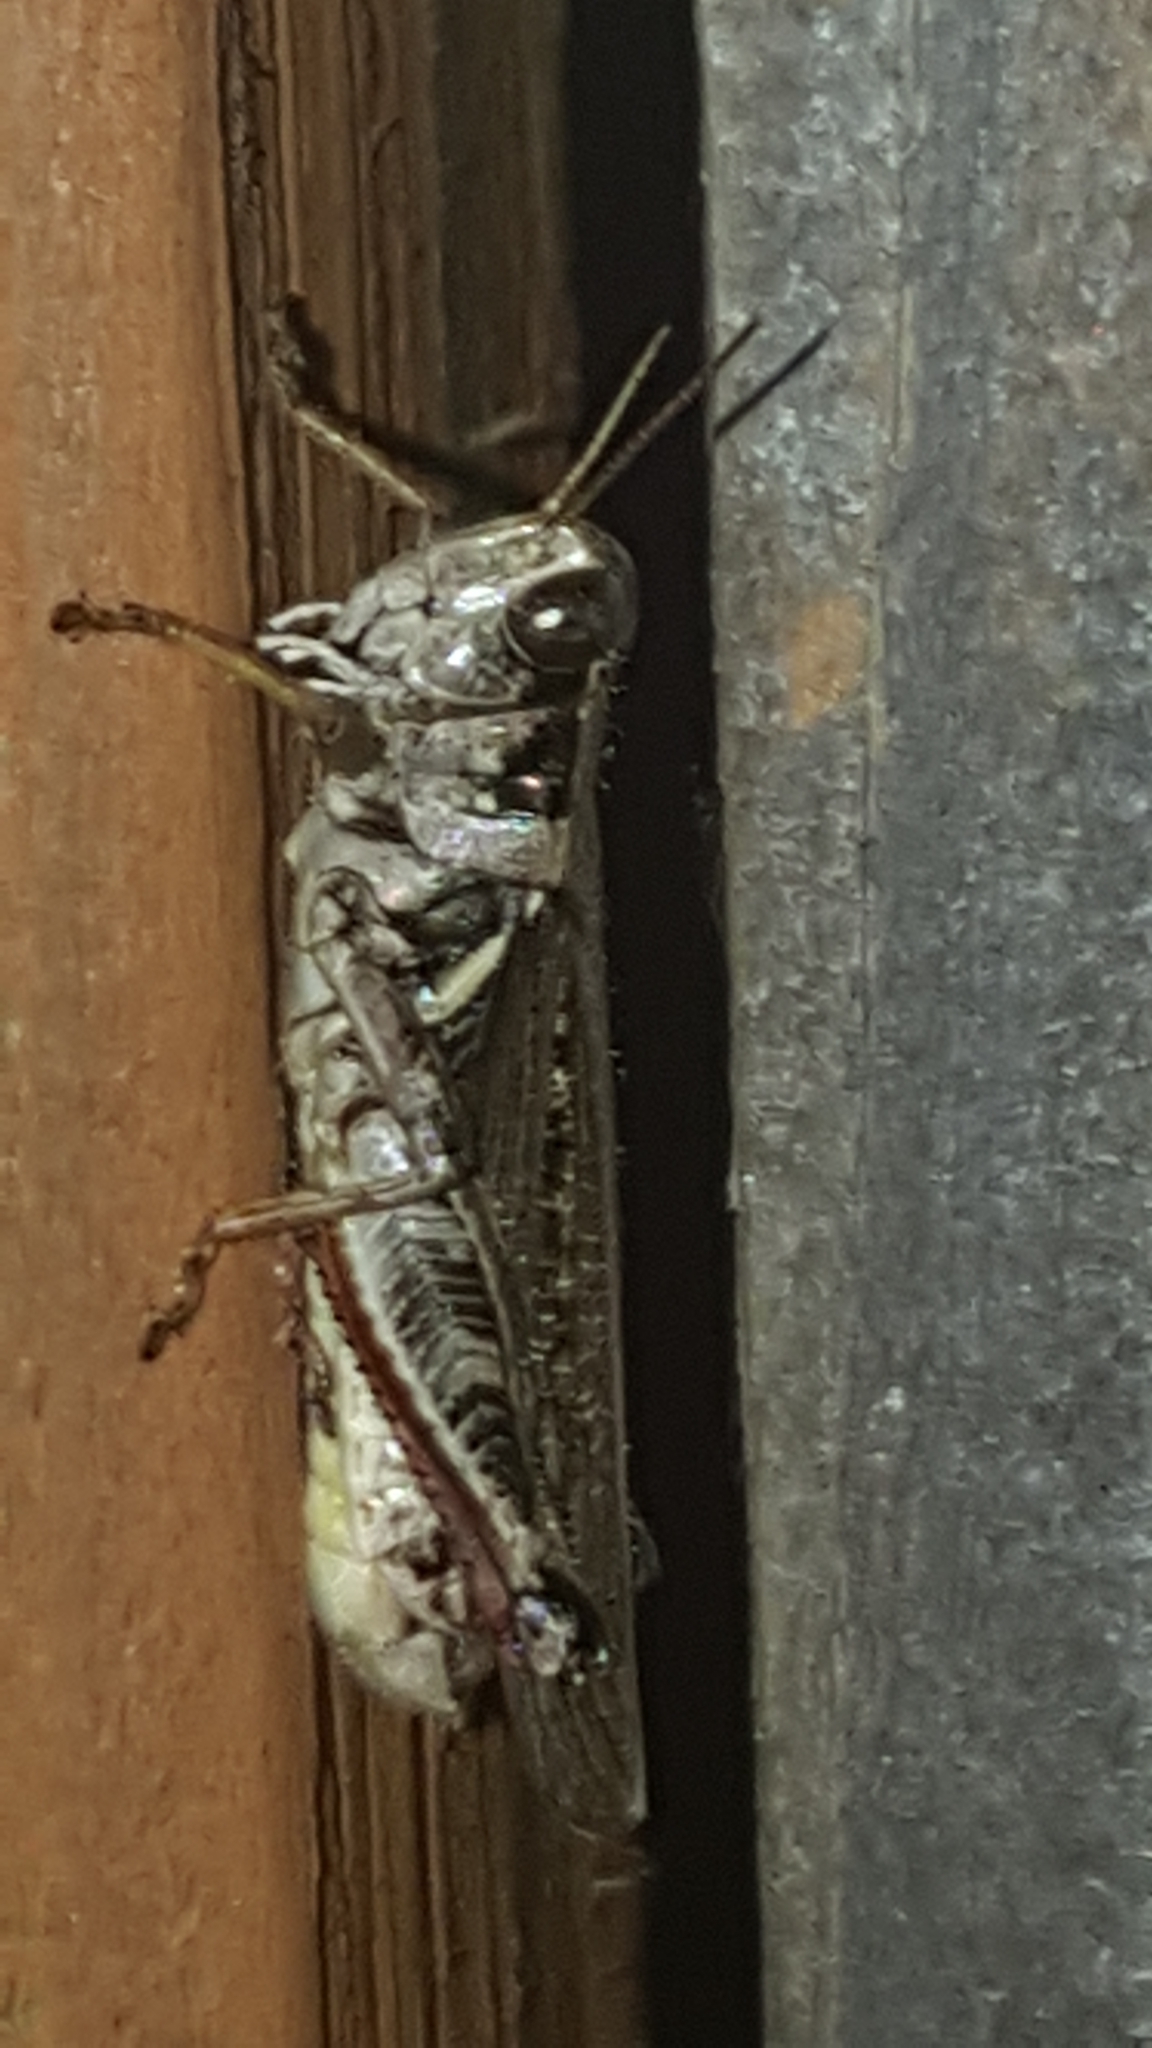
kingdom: Animalia
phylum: Arthropoda
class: Insecta
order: Orthoptera
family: Acrididae
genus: Melanoplus
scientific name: Melanoplus sanguinipes
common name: Migratory grasshopper
